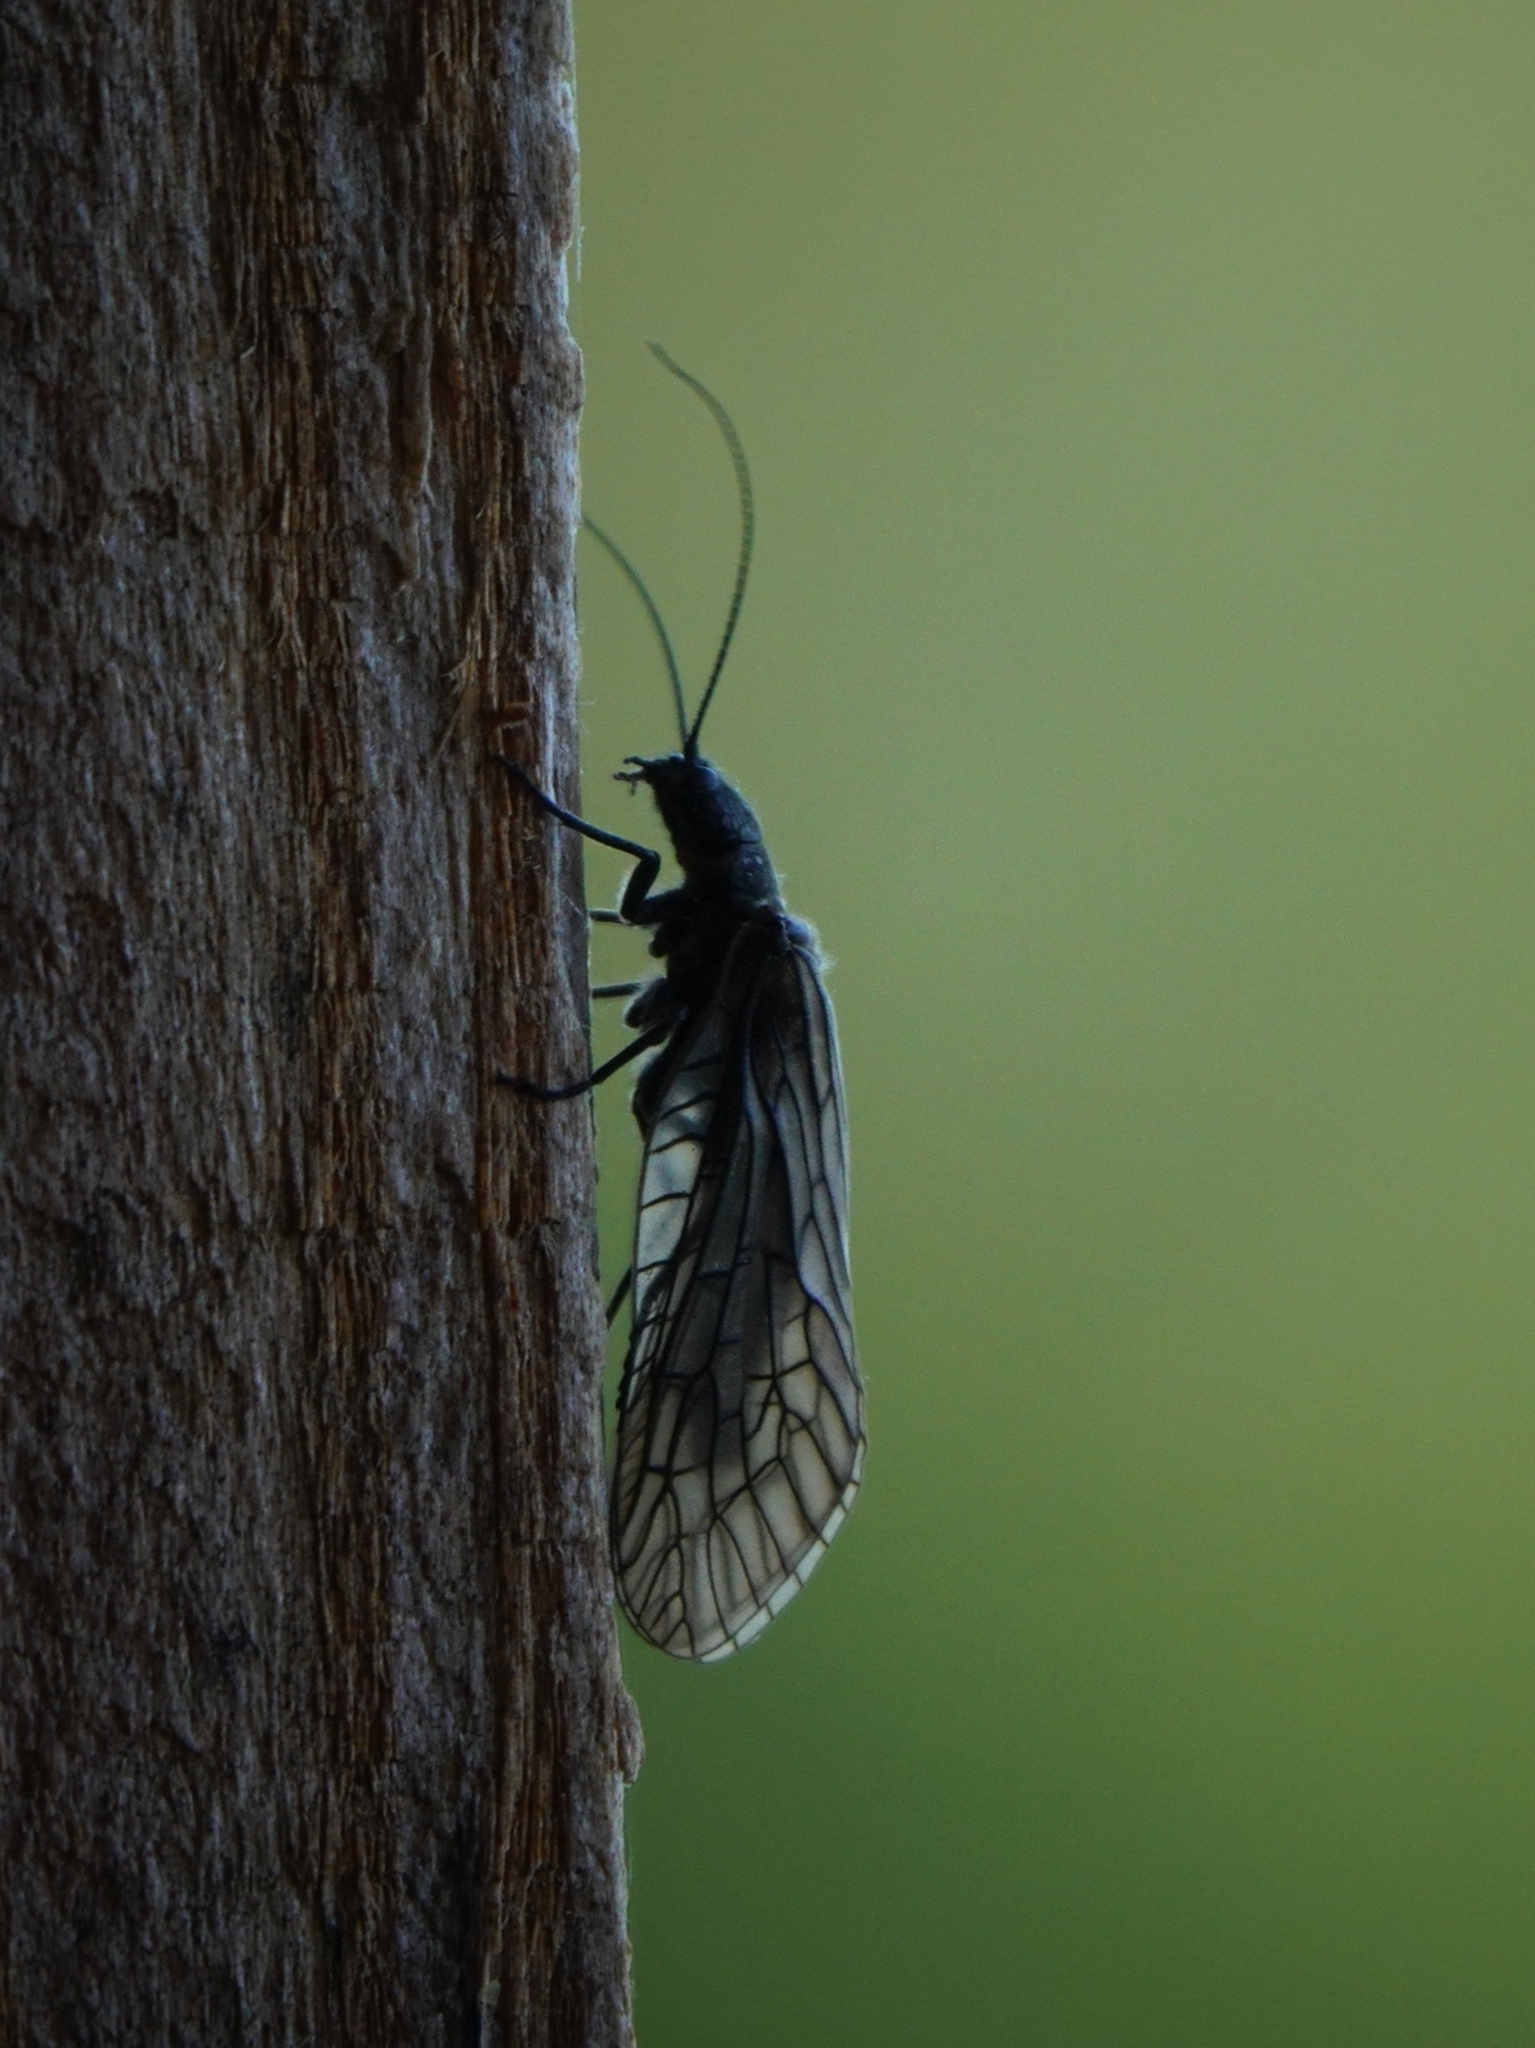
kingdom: Animalia
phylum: Arthropoda
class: Insecta
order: Megaloptera
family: Sialidae
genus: Sialis
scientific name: Sialis
